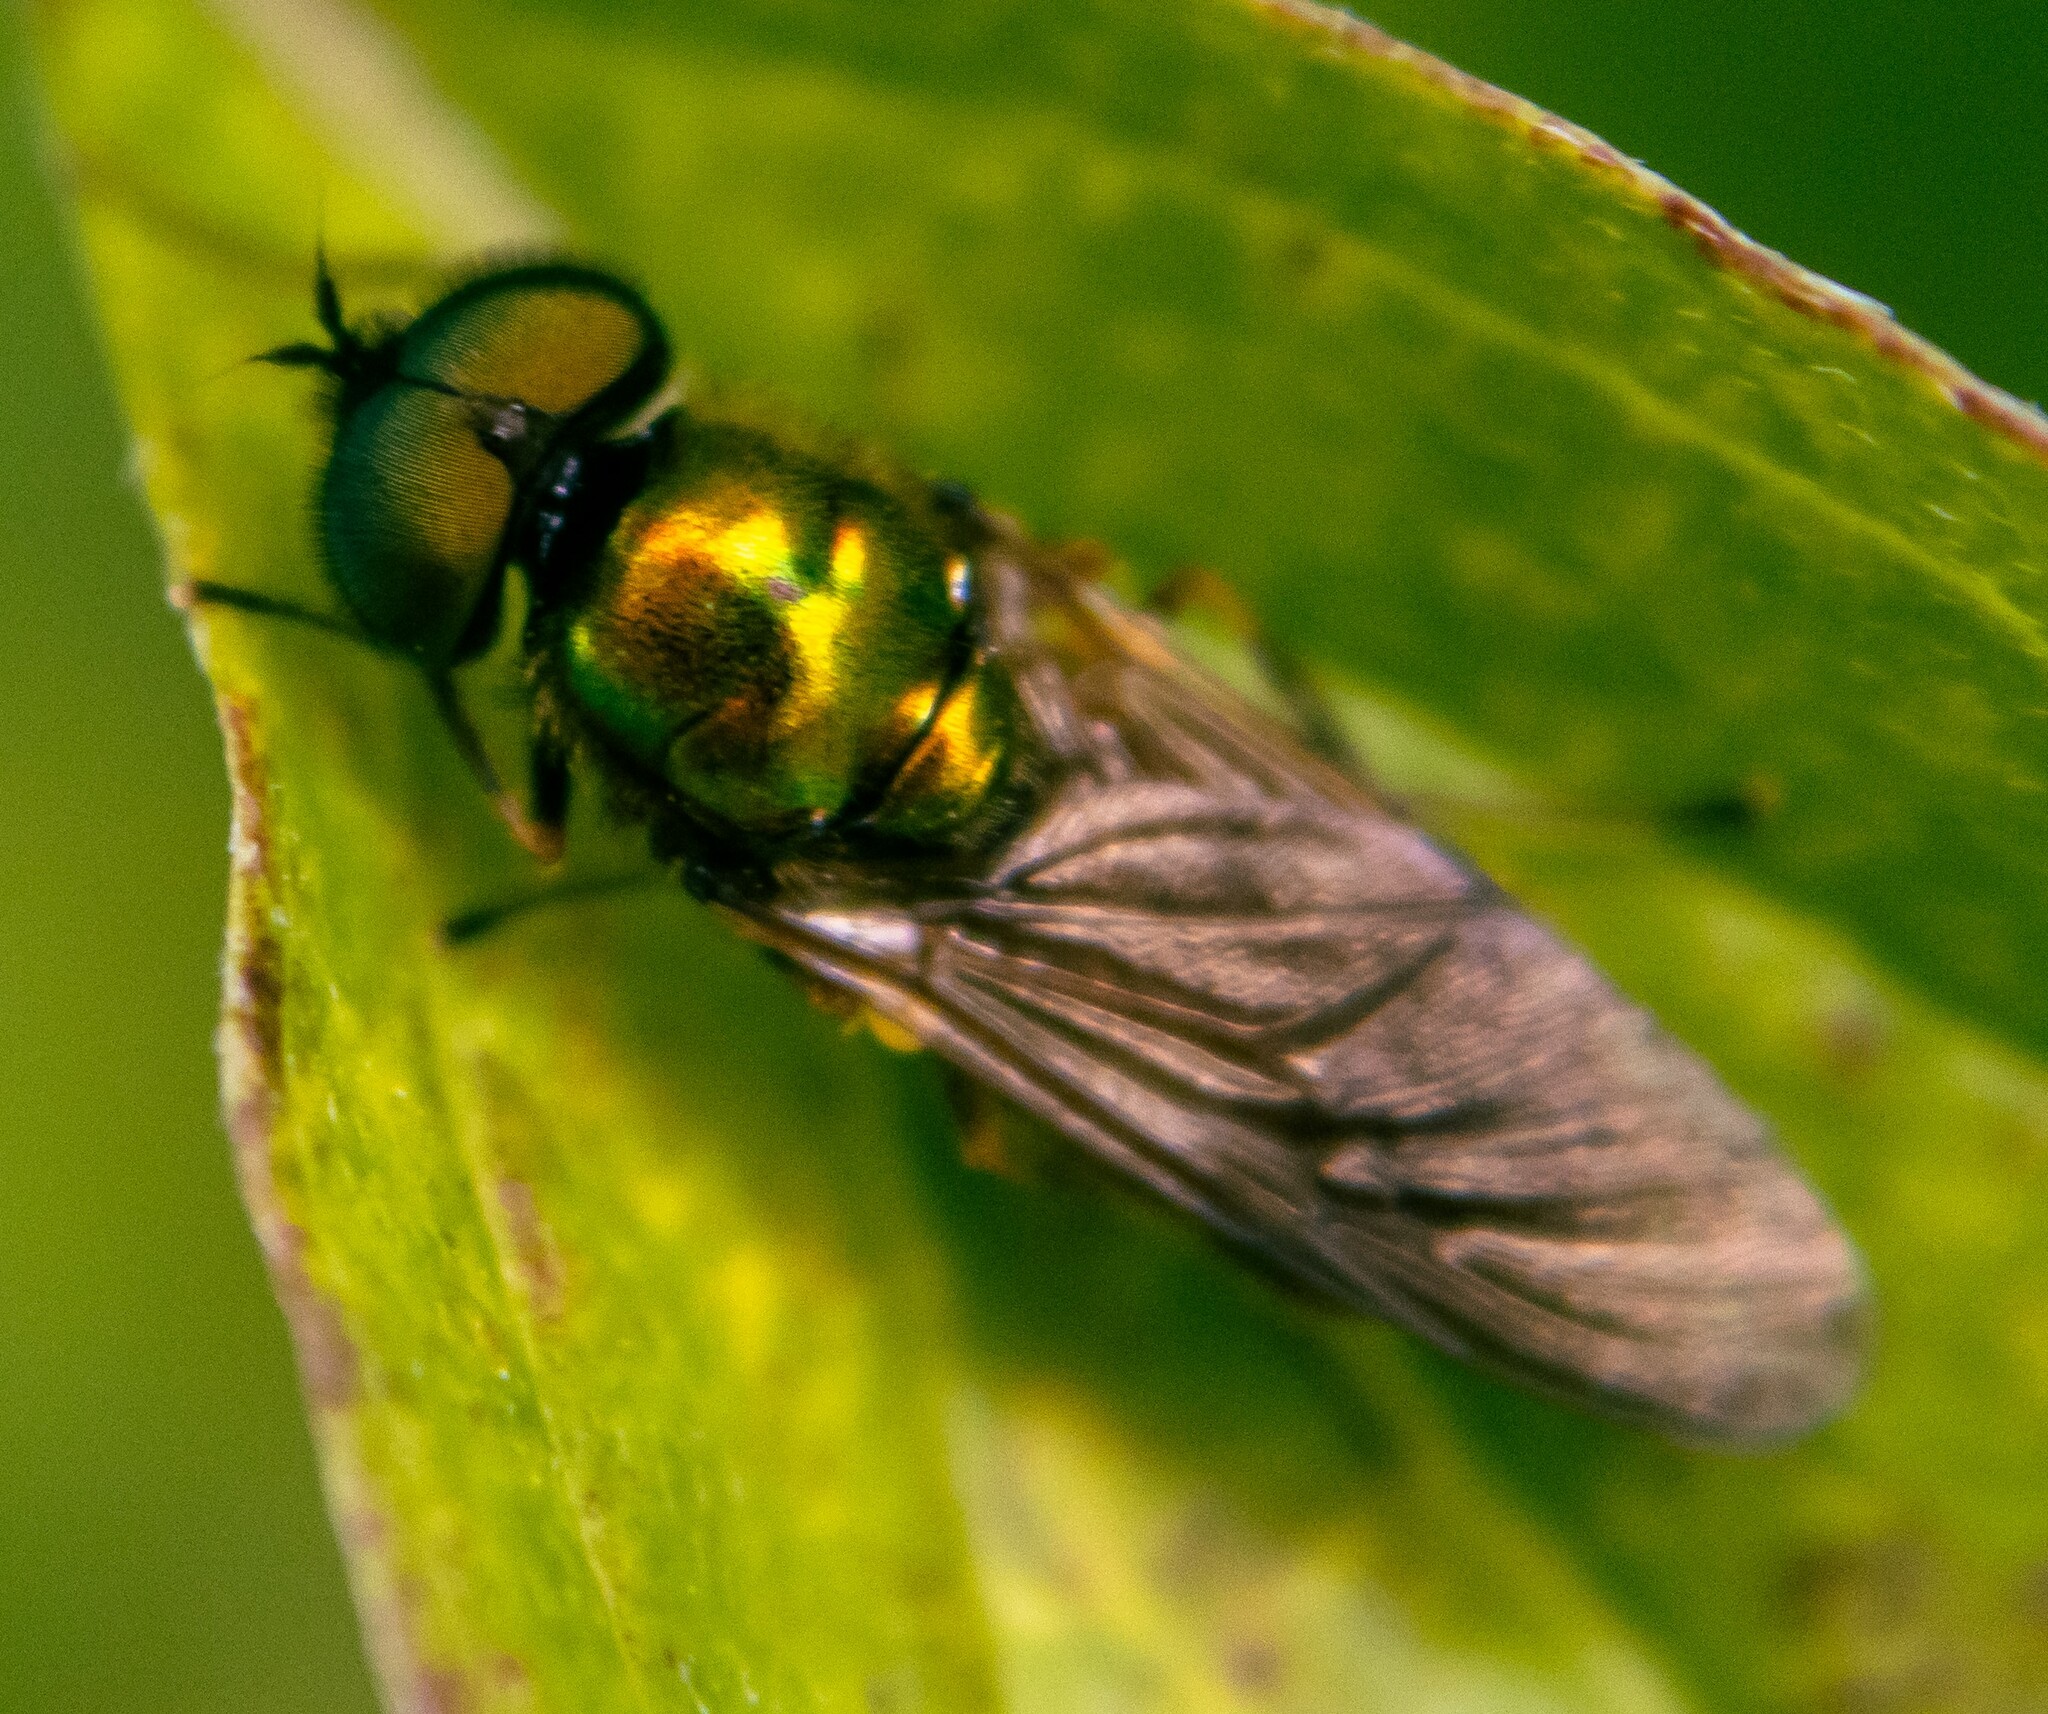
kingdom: Animalia
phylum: Arthropoda
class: Insecta
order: Diptera
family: Stratiomyidae
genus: Chloromyia
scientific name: Chloromyia formosa
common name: Soldier fly
